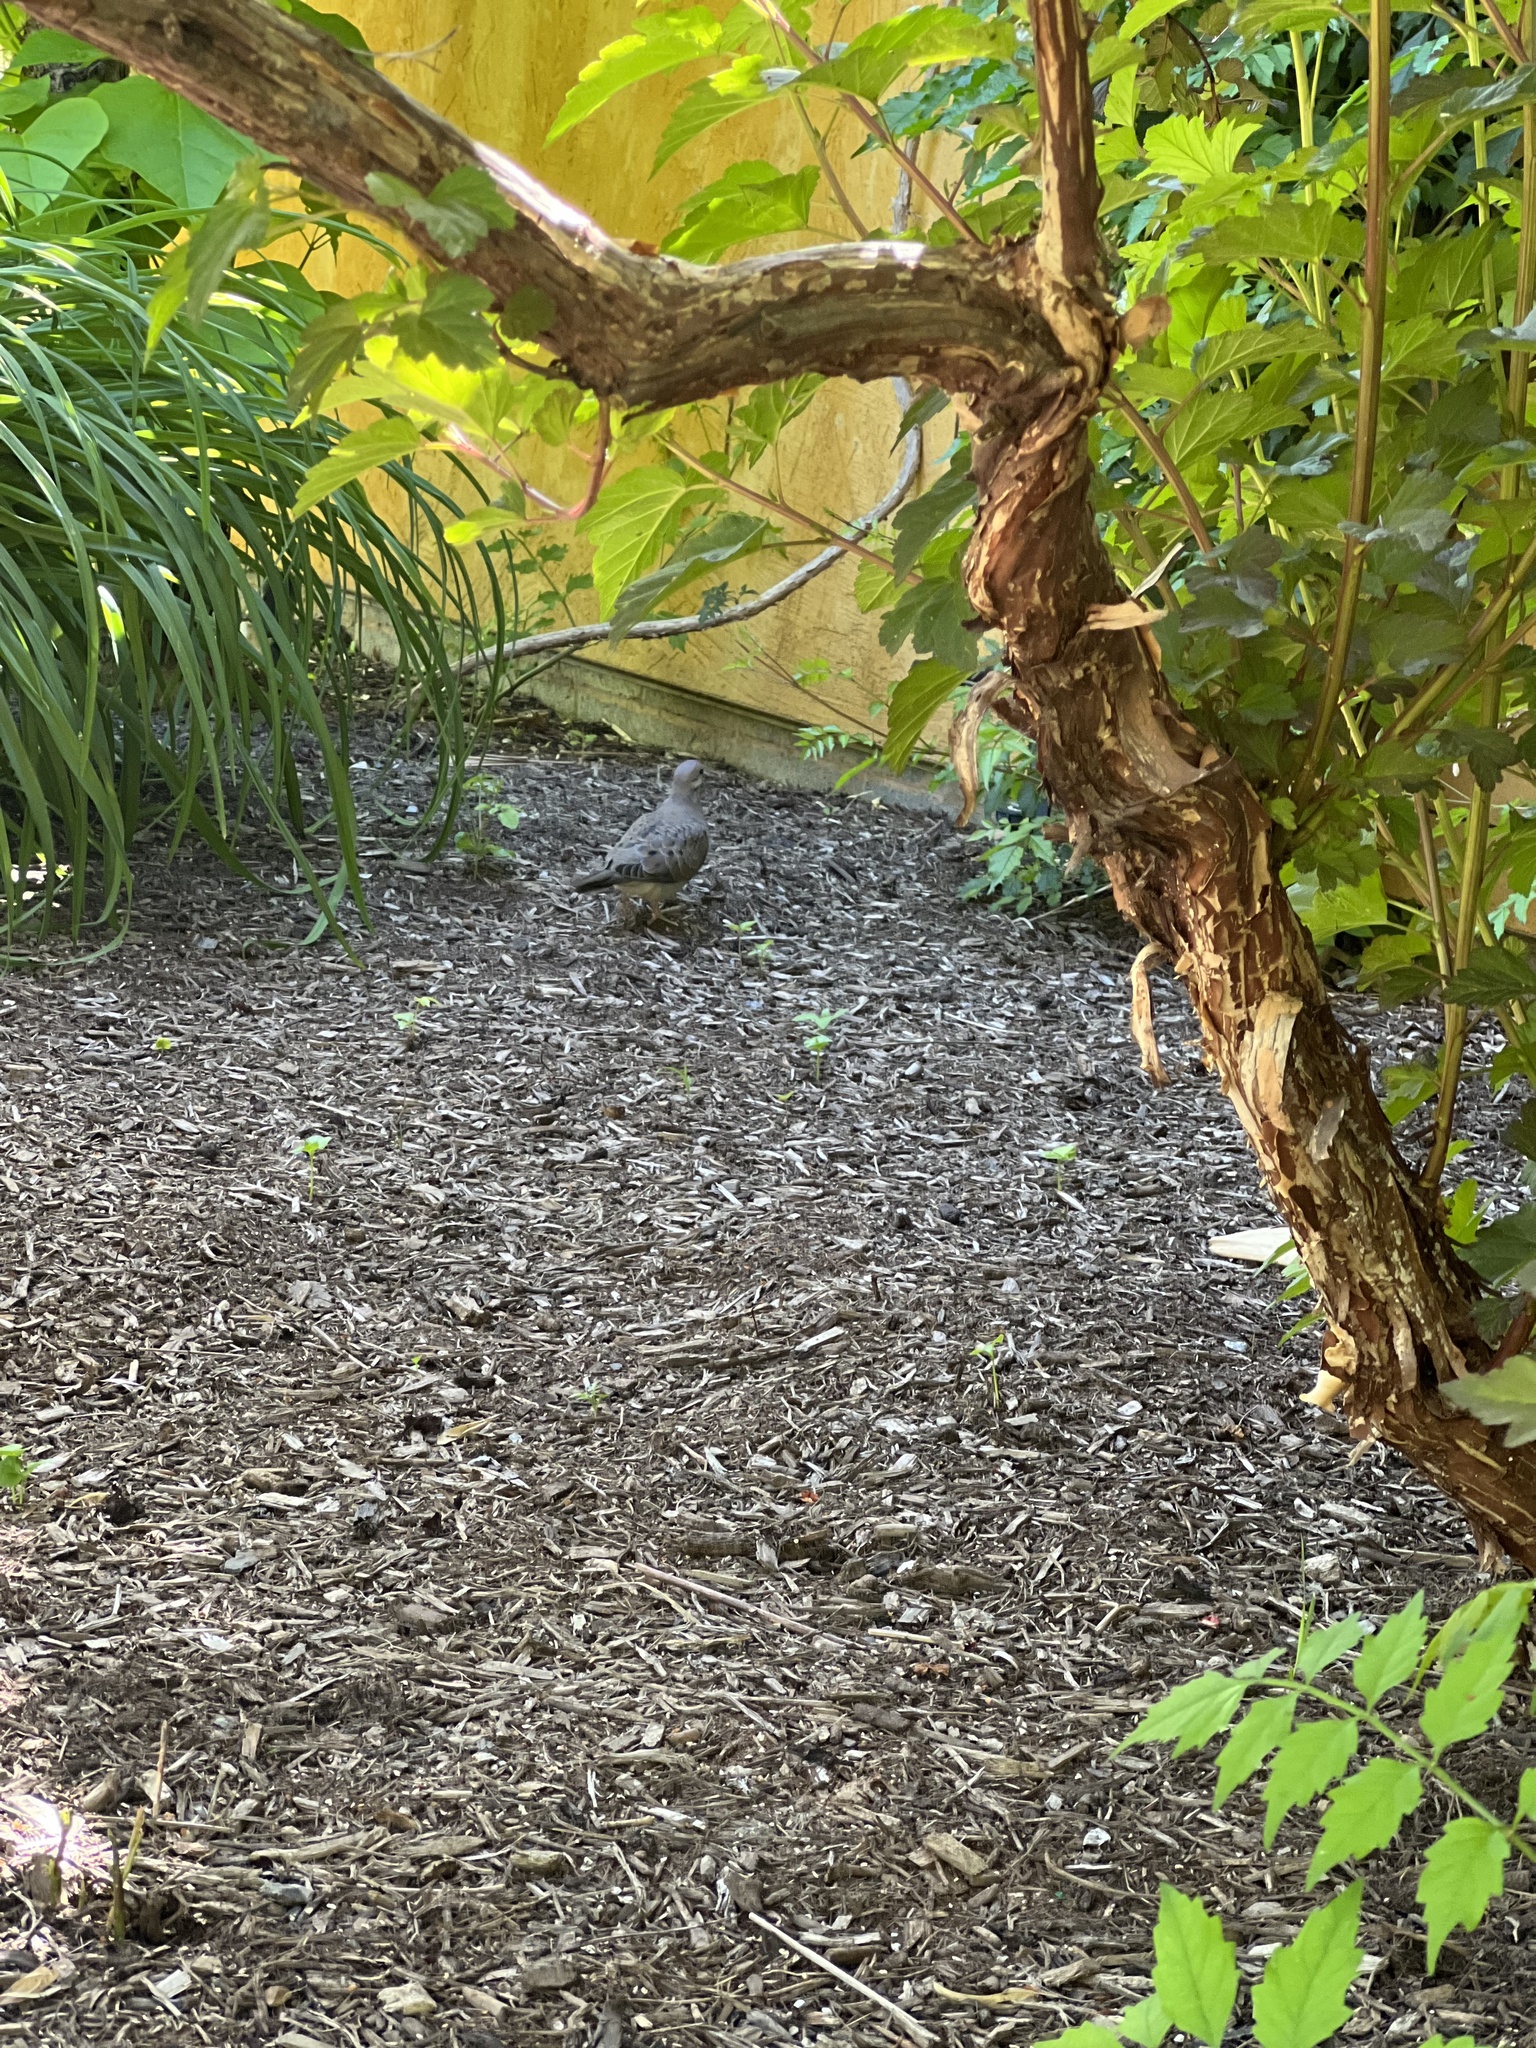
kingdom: Animalia
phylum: Chordata
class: Aves
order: Columbiformes
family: Columbidae
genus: Zenaida
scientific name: Zenaida macroura
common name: Mourning dove
